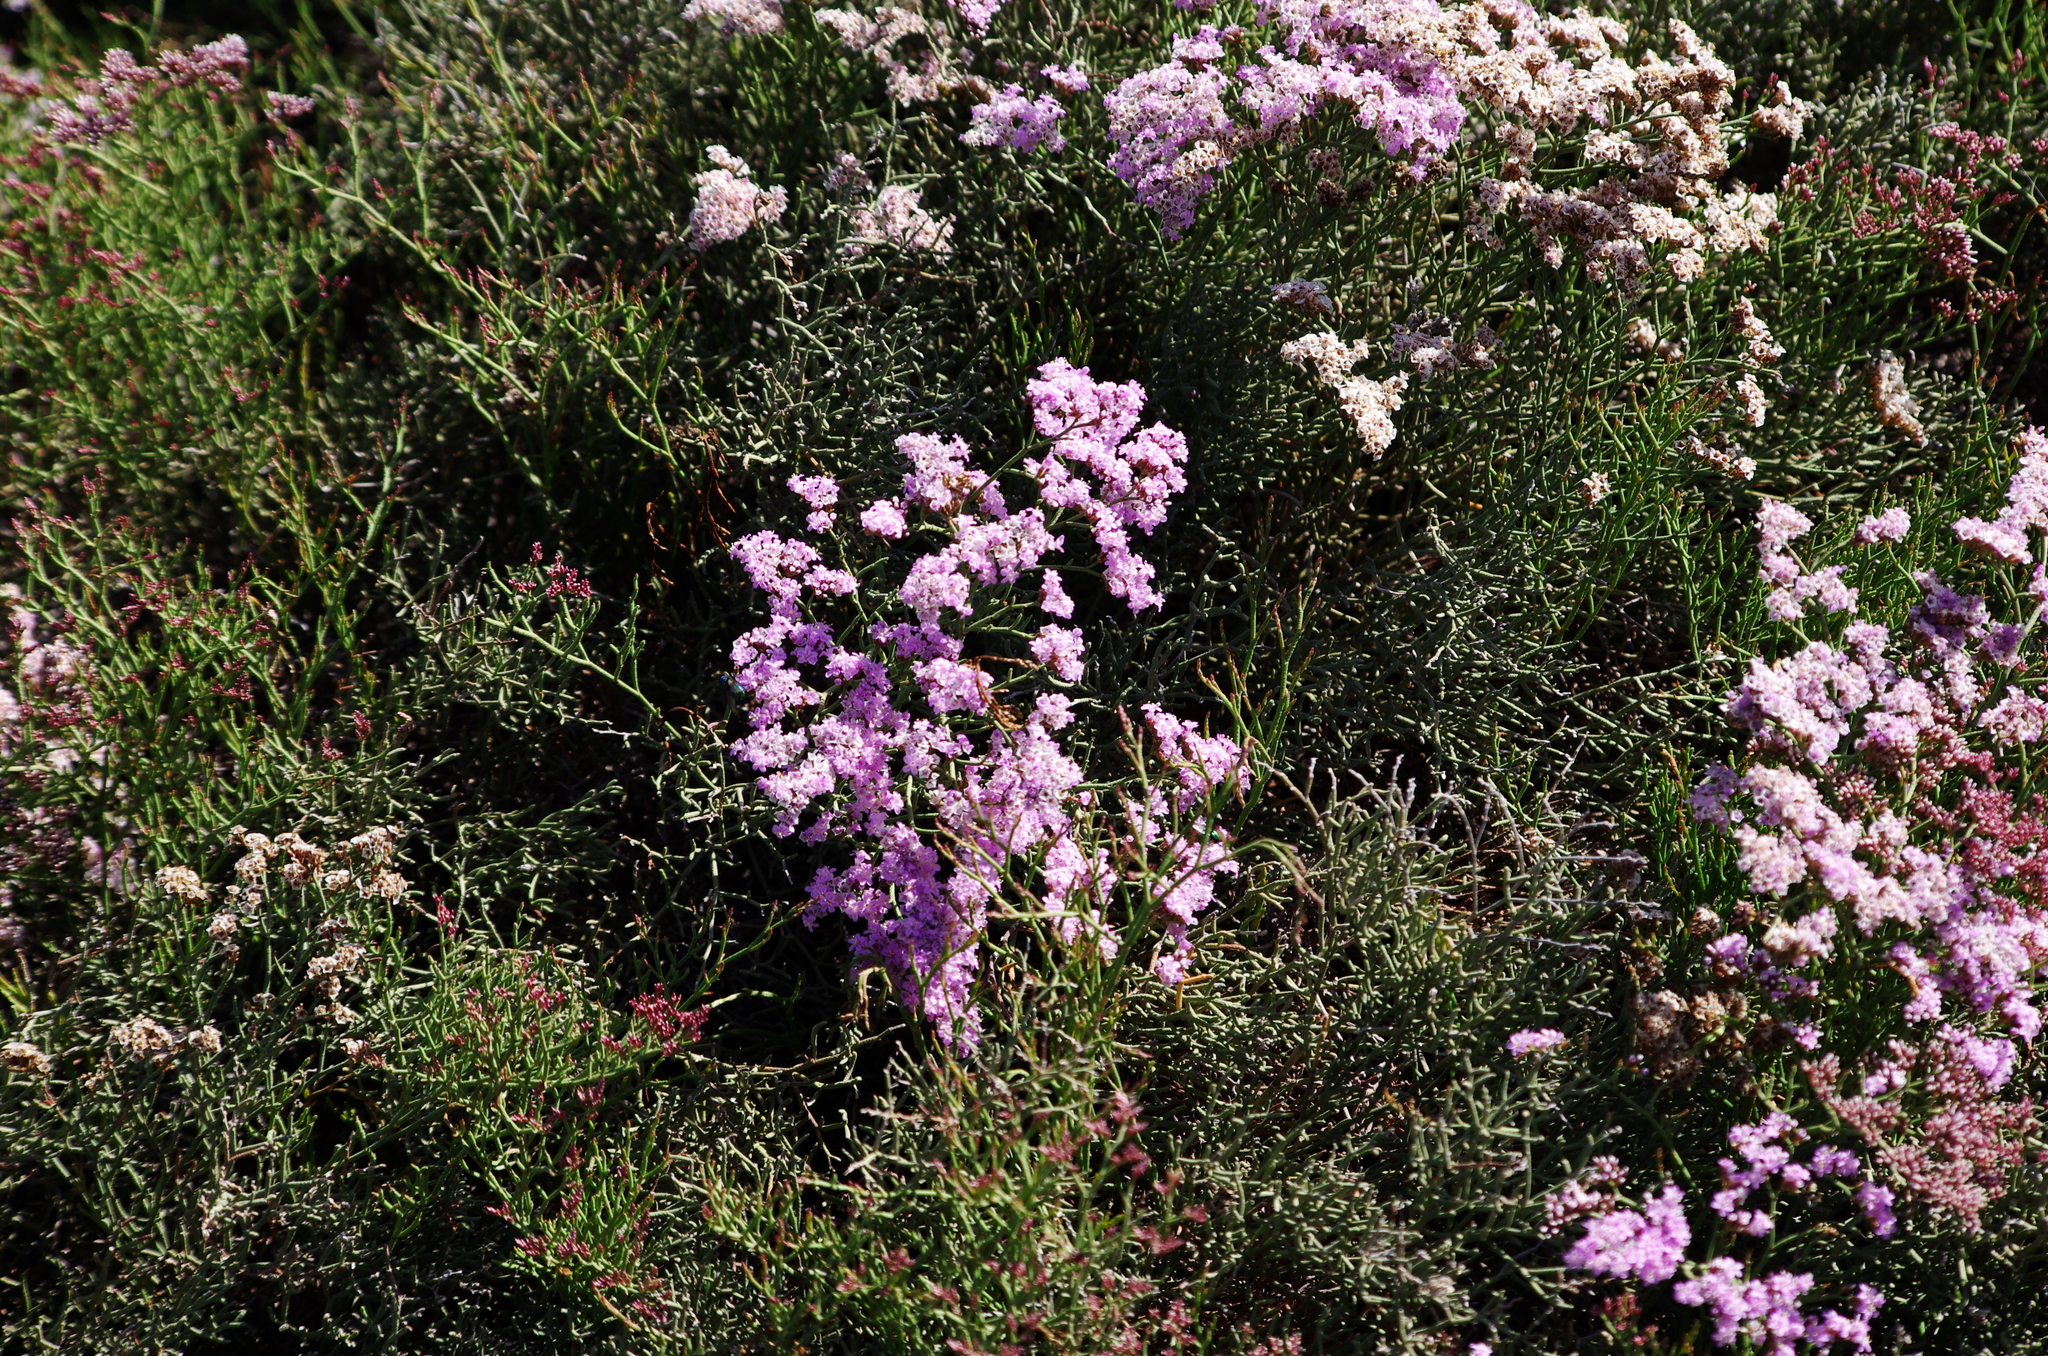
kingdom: Plantae
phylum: Tracheophyta
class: Magnoliopsida
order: Caryophyllales
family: Plumbaginaceae
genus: Limonium
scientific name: Limonium tuberculatum
